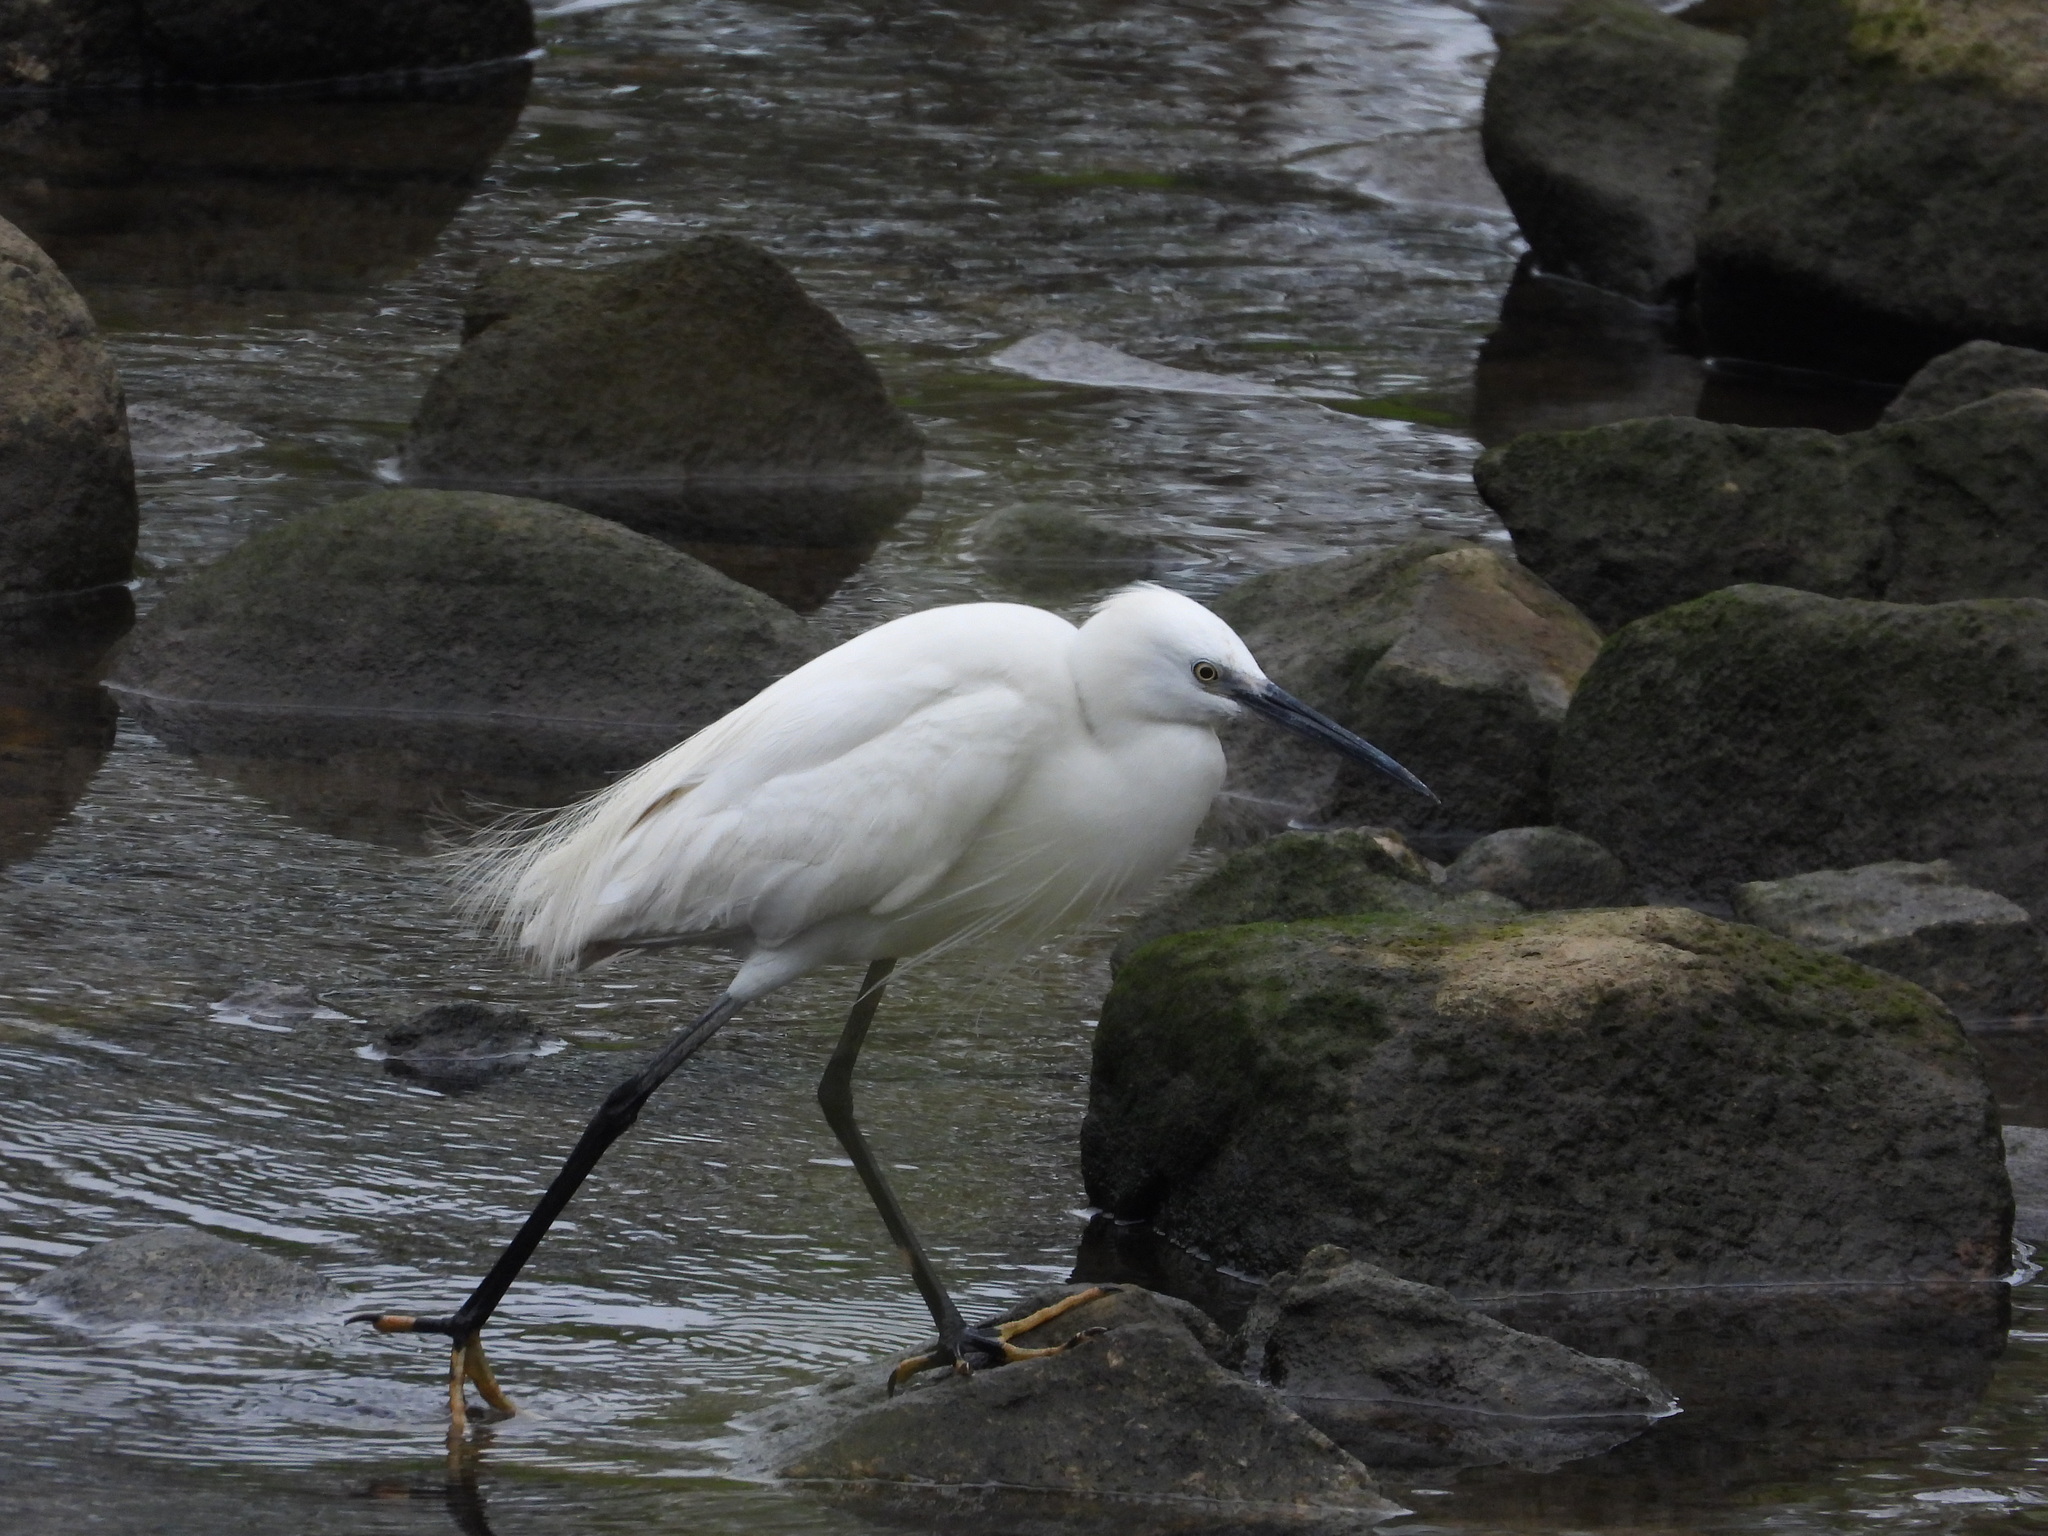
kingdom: Animalia
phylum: Chordata
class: Aves
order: Pelecaniformes
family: Ardeidae
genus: Egretta
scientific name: Egretta garzetta
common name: Little egret
